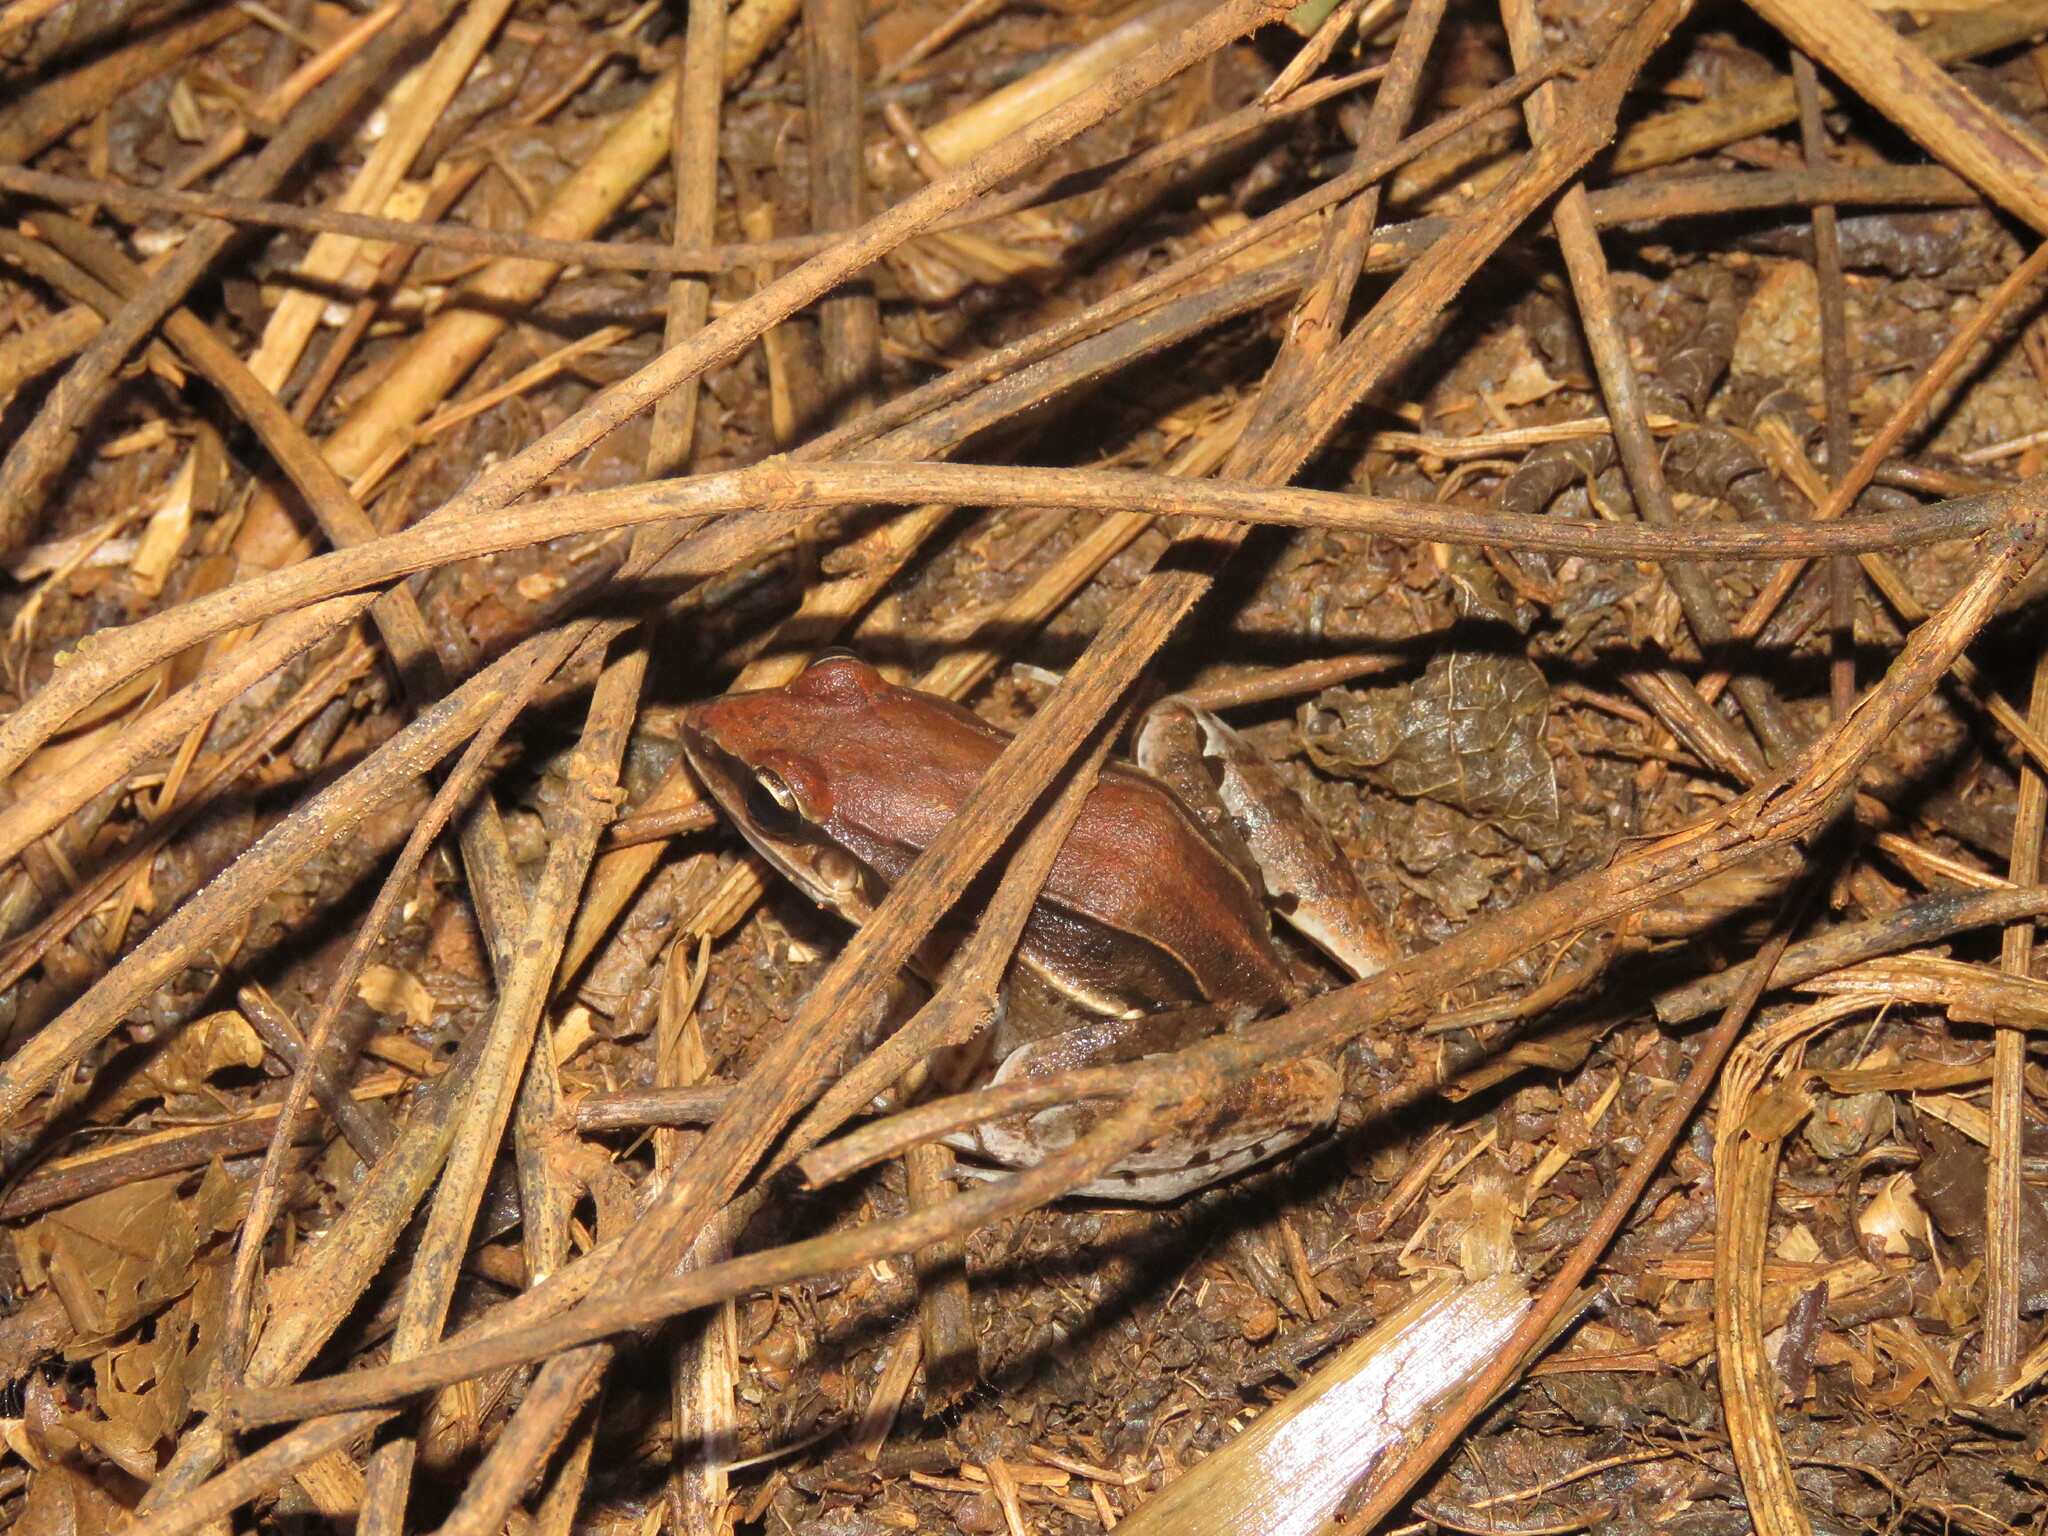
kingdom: Animalia
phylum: Chordata
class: Amphibia
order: Anura
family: Leptodactylidae
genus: Leptodactylus
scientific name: Leptodactylus mystaceus
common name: Amazonian white-lipped frog
